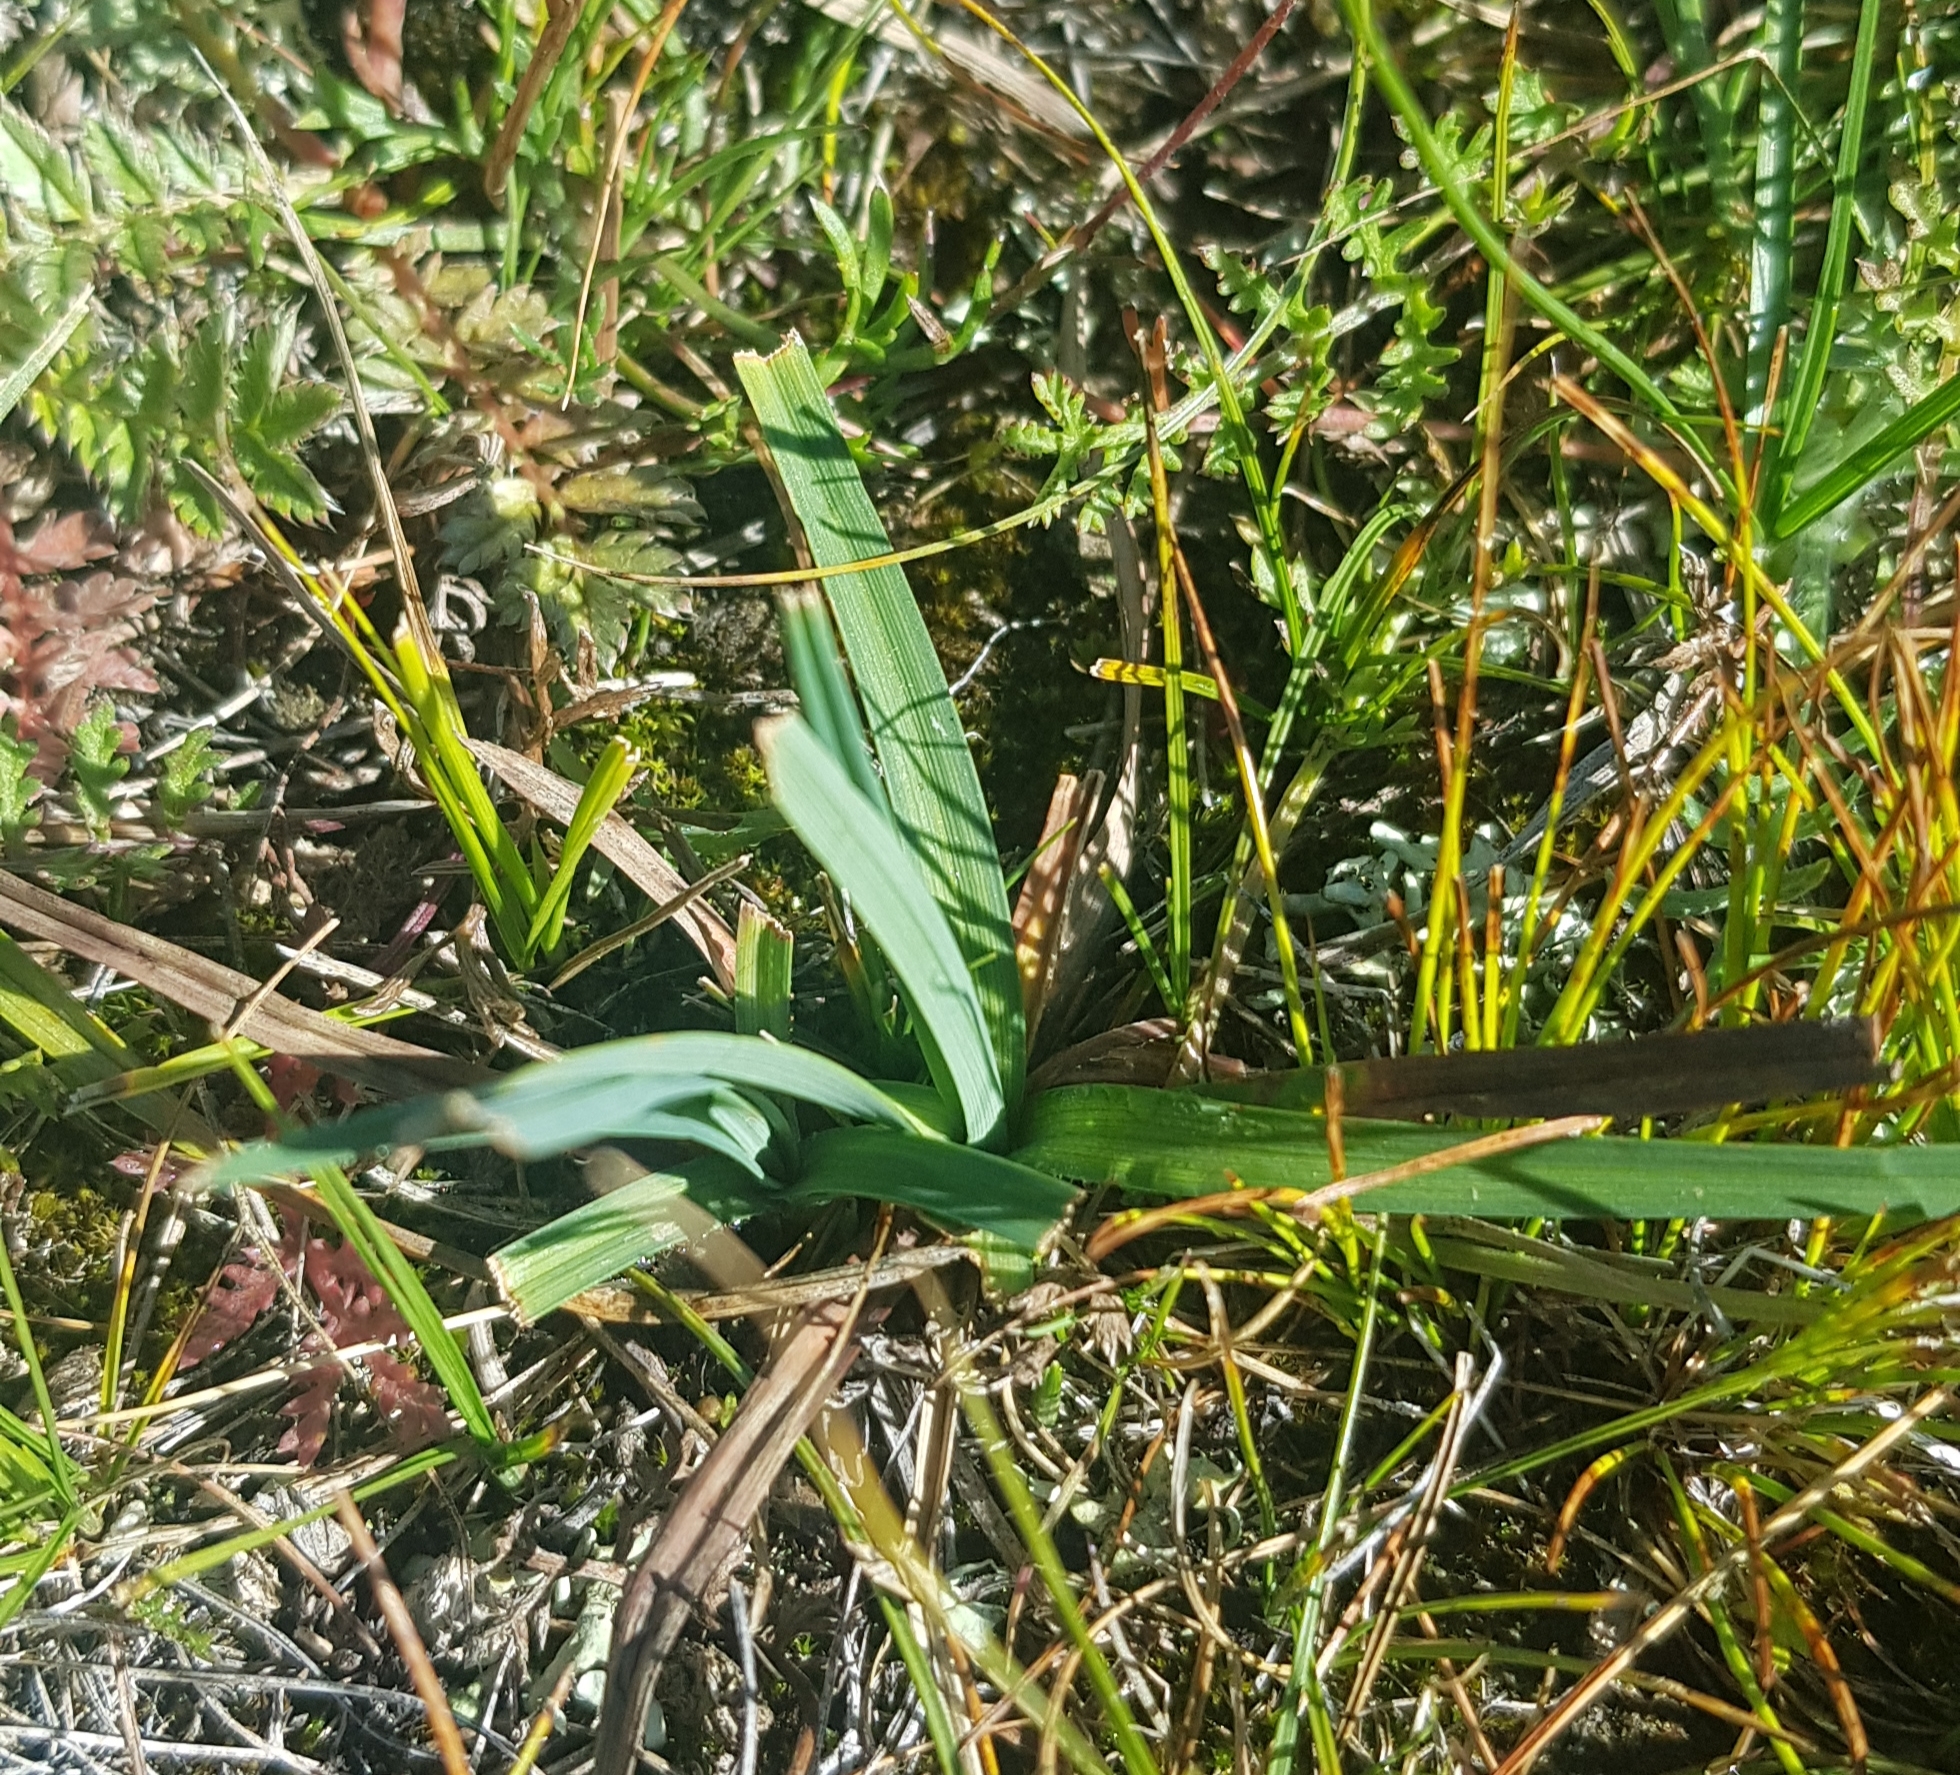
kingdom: Plantae
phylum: Tracheophyta
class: Liliopsida
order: Poales
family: Poaceae
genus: Elymus
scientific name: Elymus repens
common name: Quackgrass
